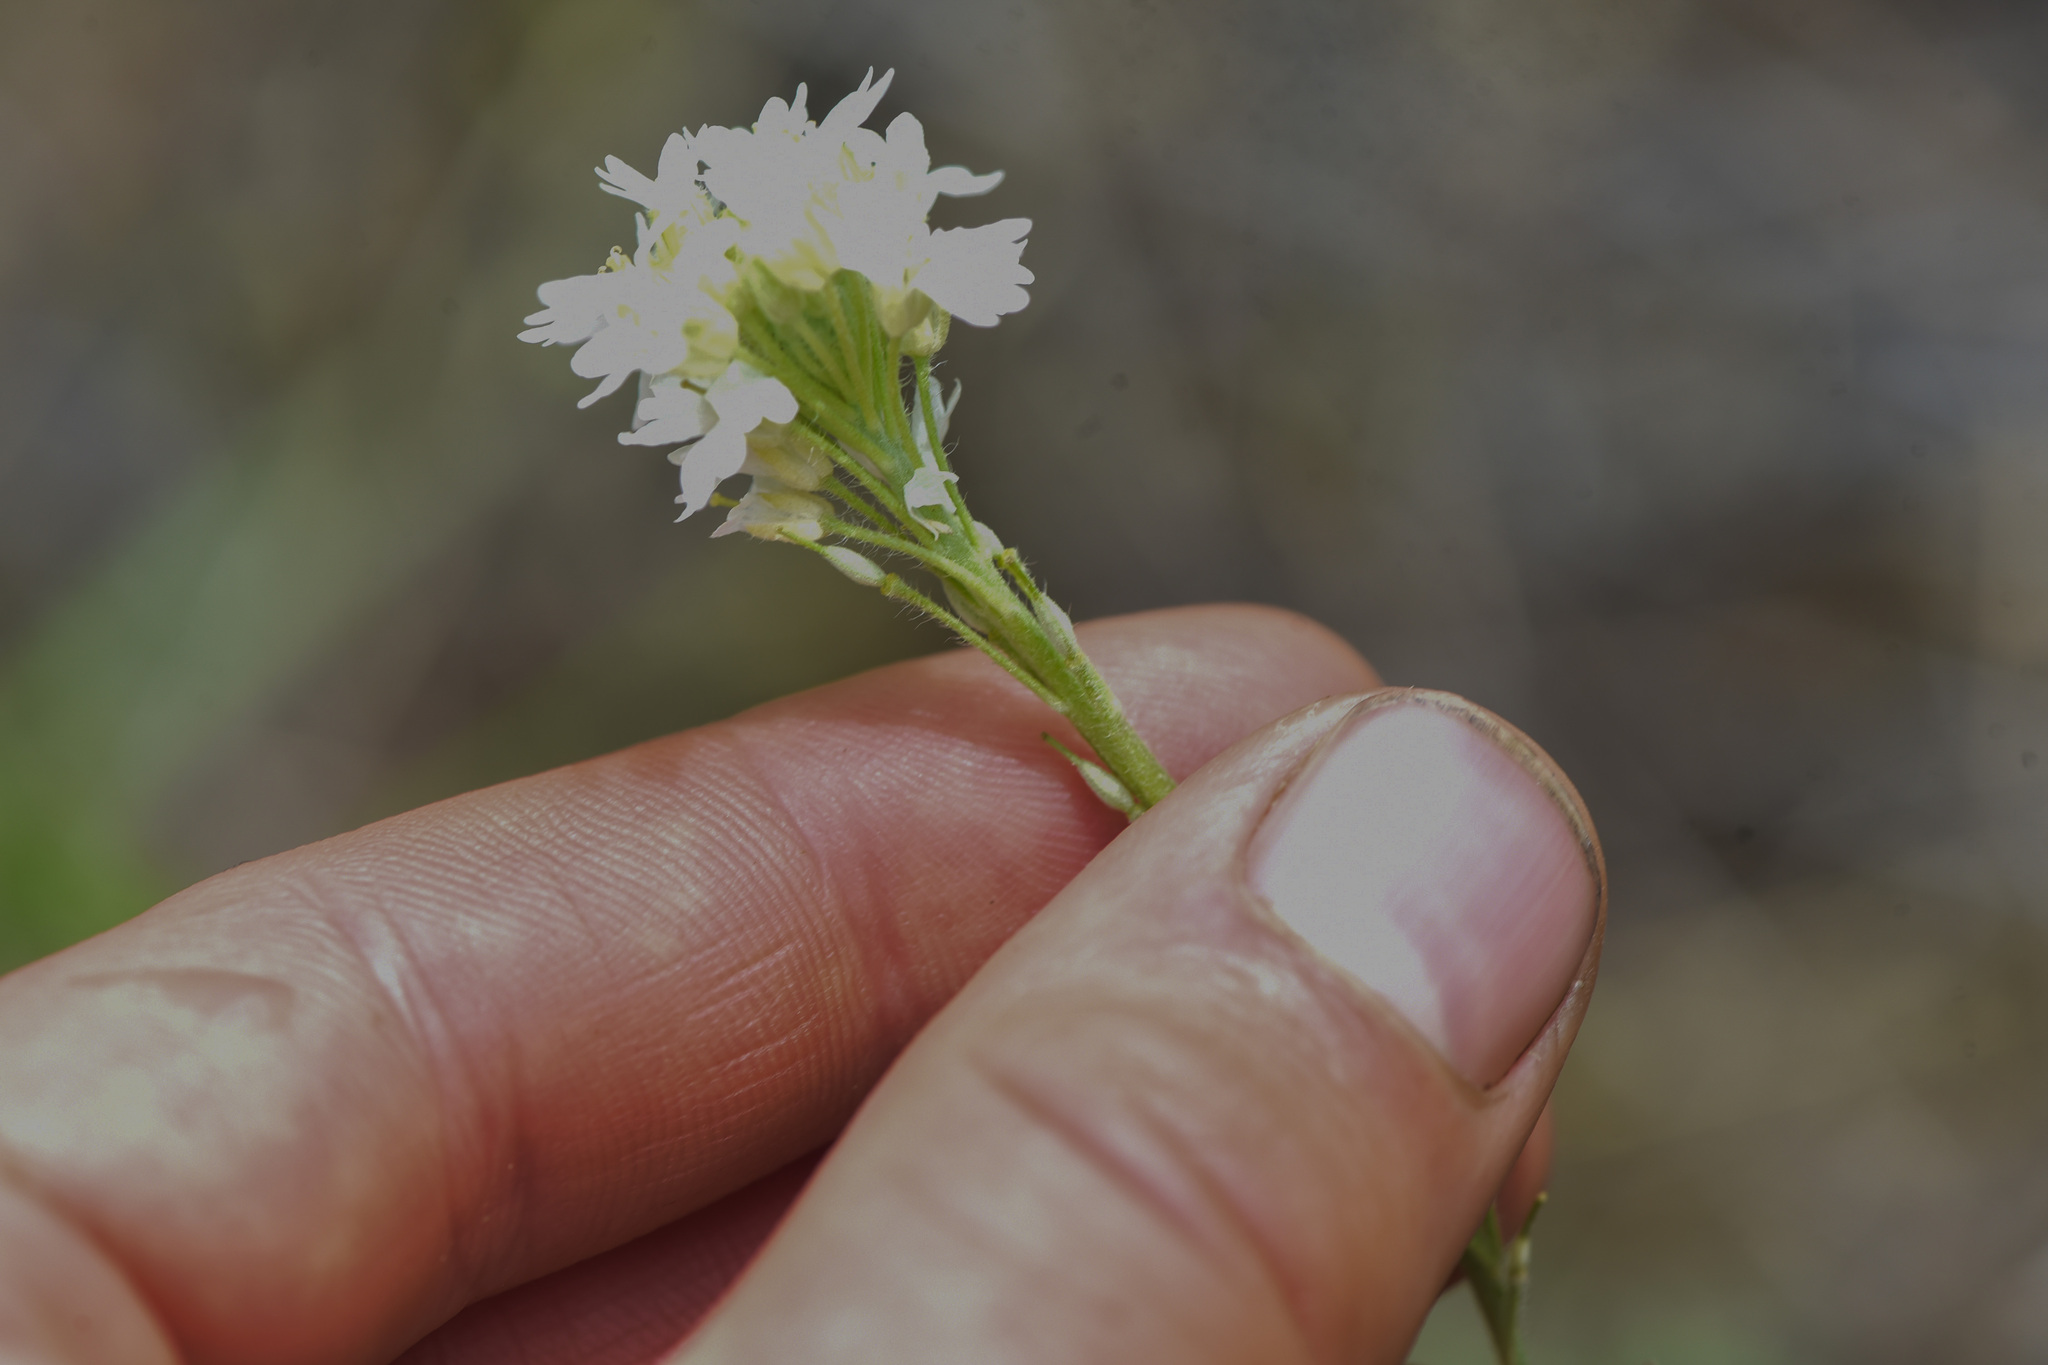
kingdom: Plantae
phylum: Tracheophyta
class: Magnoliopsida
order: Brassicales
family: Brassicaceae
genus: Berteroa
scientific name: Berteroa incana
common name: Hoary alison
